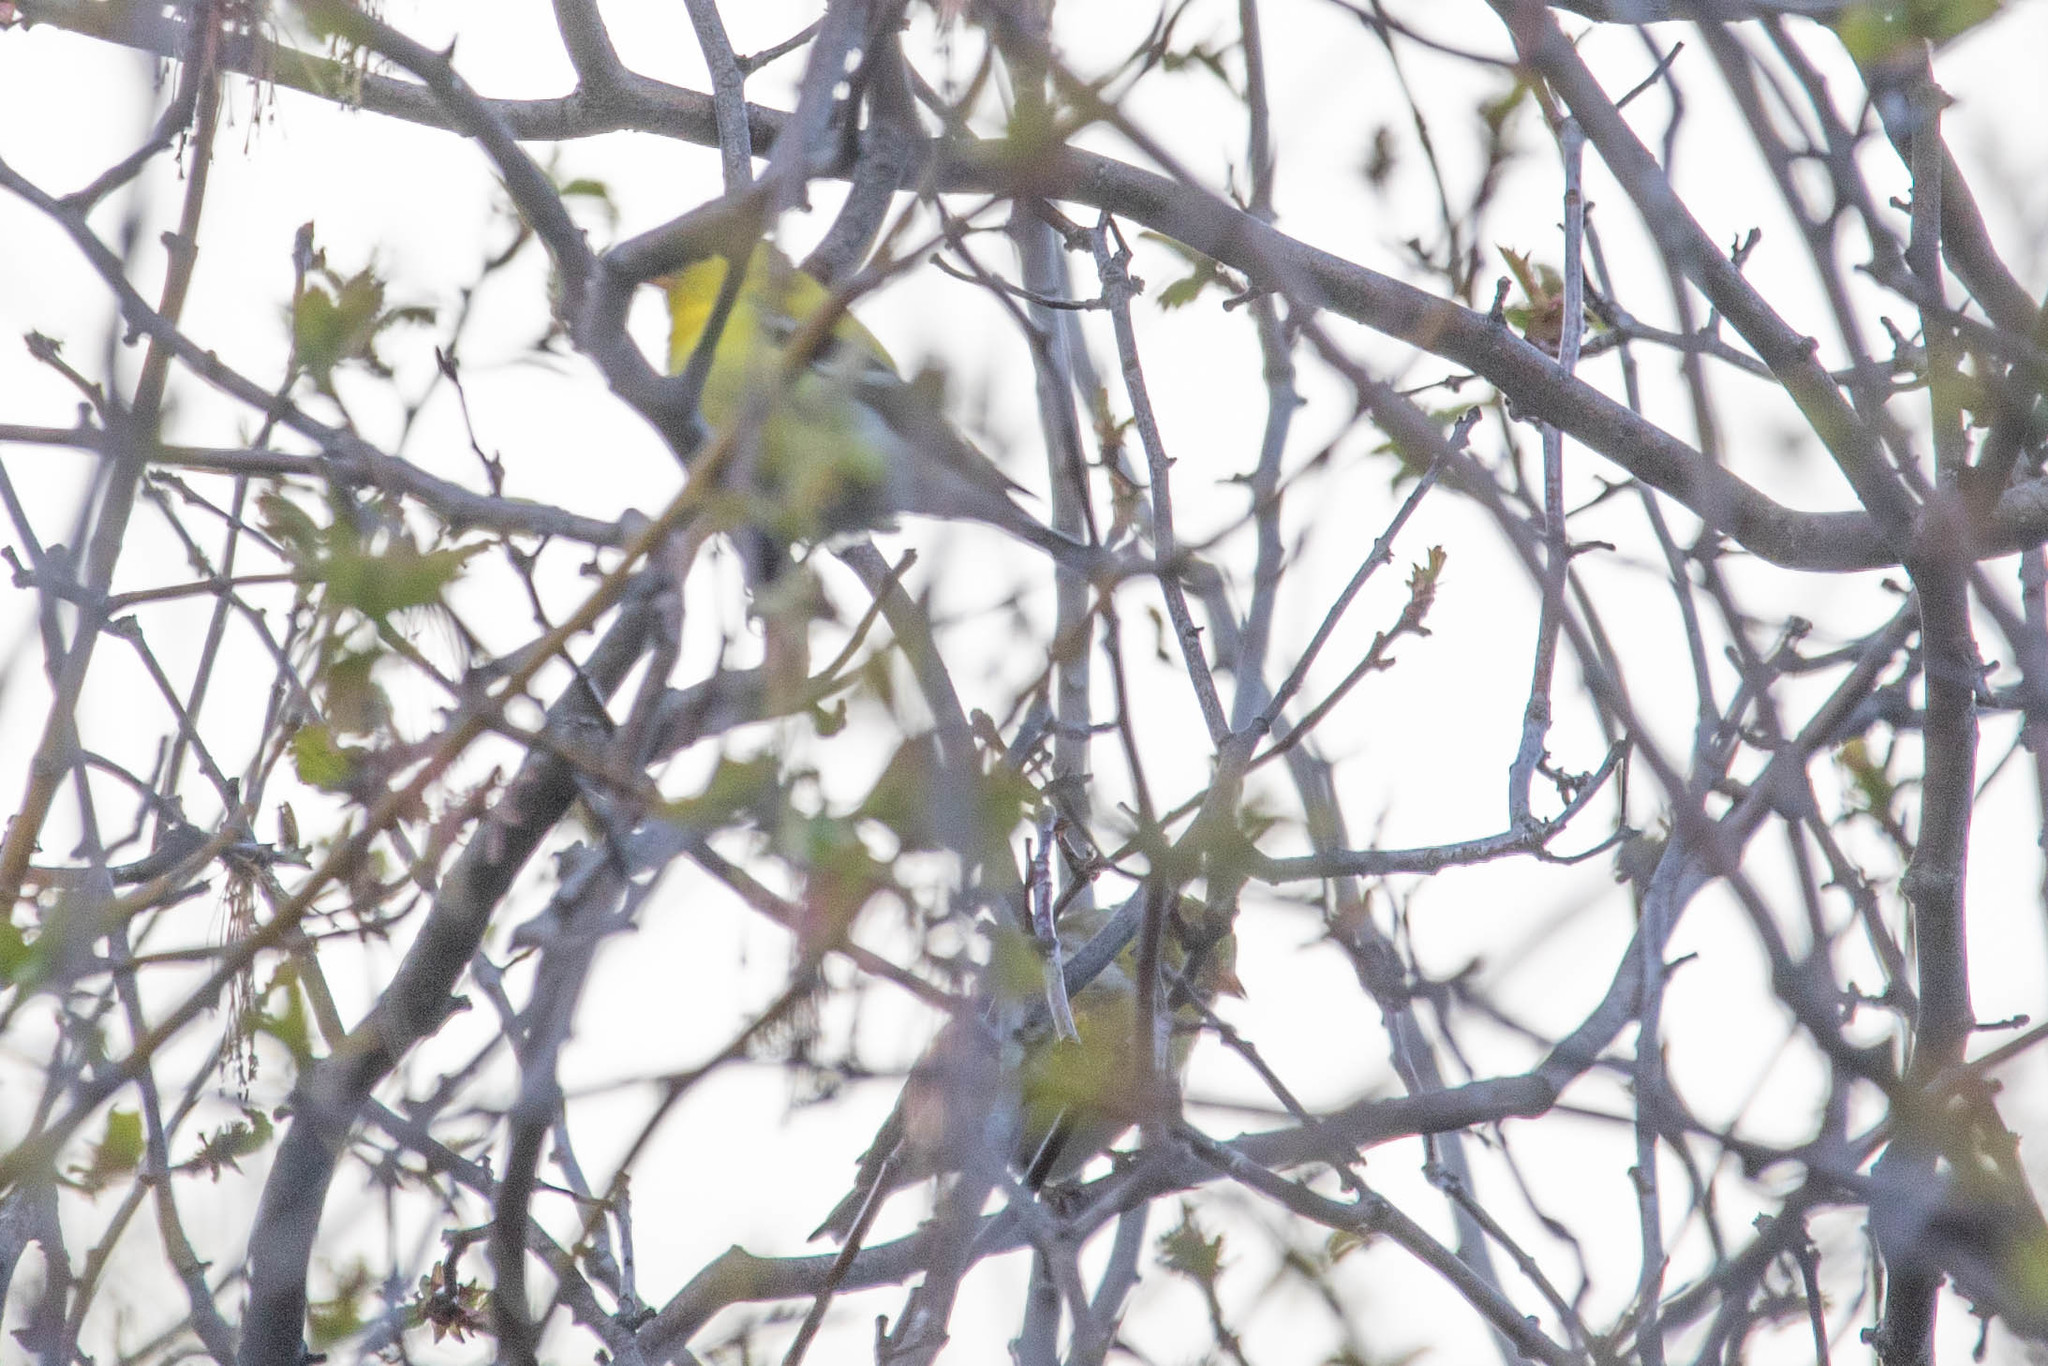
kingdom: Animalia
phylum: Chordata
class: Aves
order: Passeriformes
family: Fringillidae
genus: Spinus
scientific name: Spinus tristis
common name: American goldfinch
